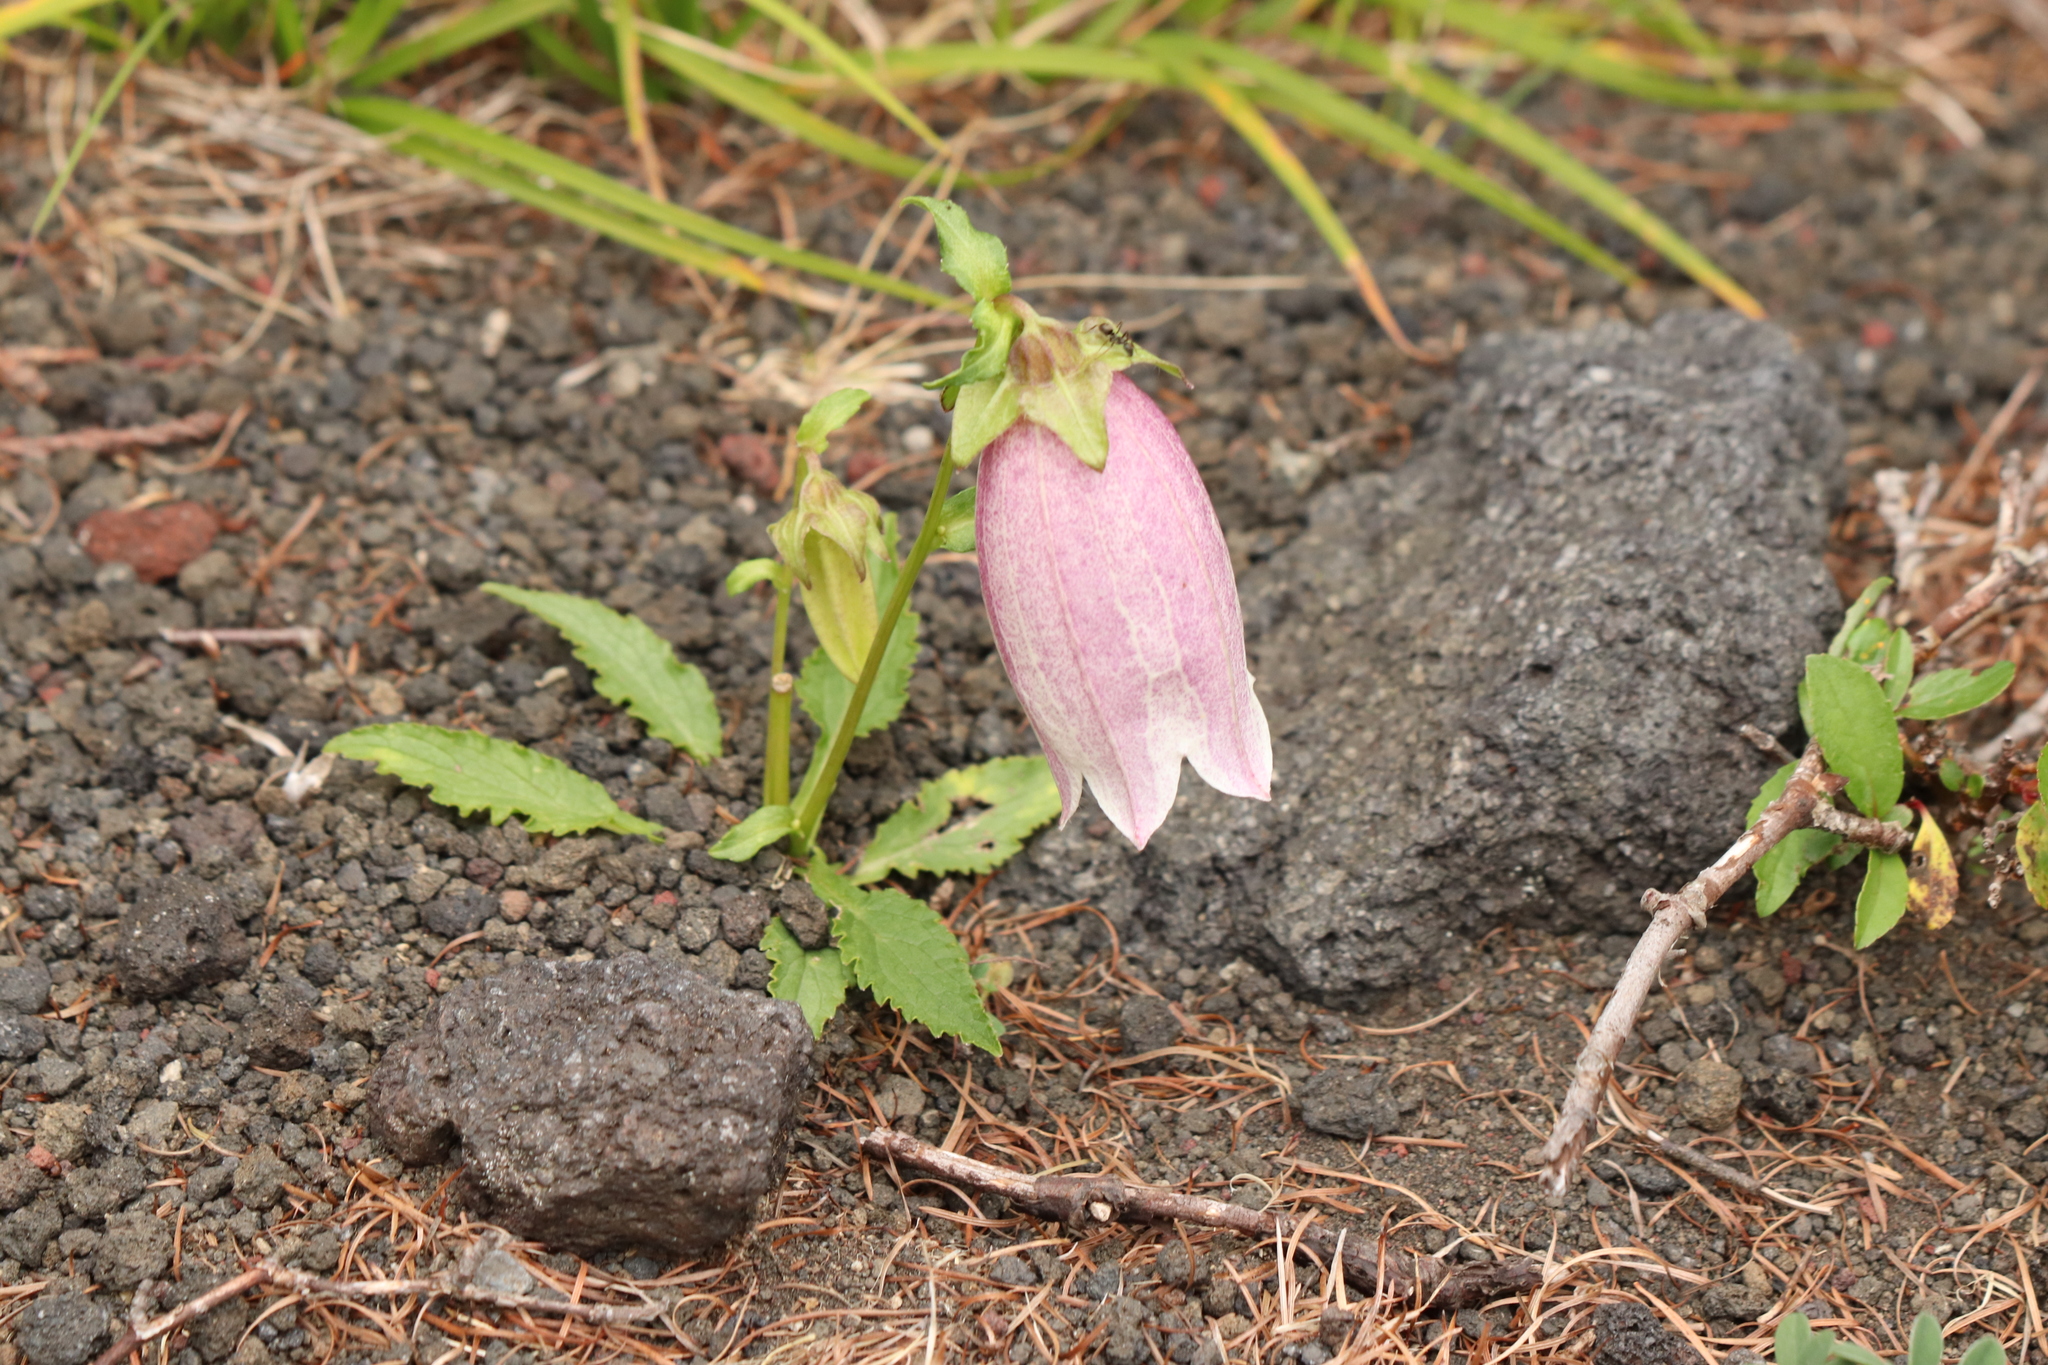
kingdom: Plantae
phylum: Tracheophyta
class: Magnoliopsida
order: Asterales
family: Campanulaceae
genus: Campanula
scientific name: Campanula punctata
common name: Spotted bellflower
